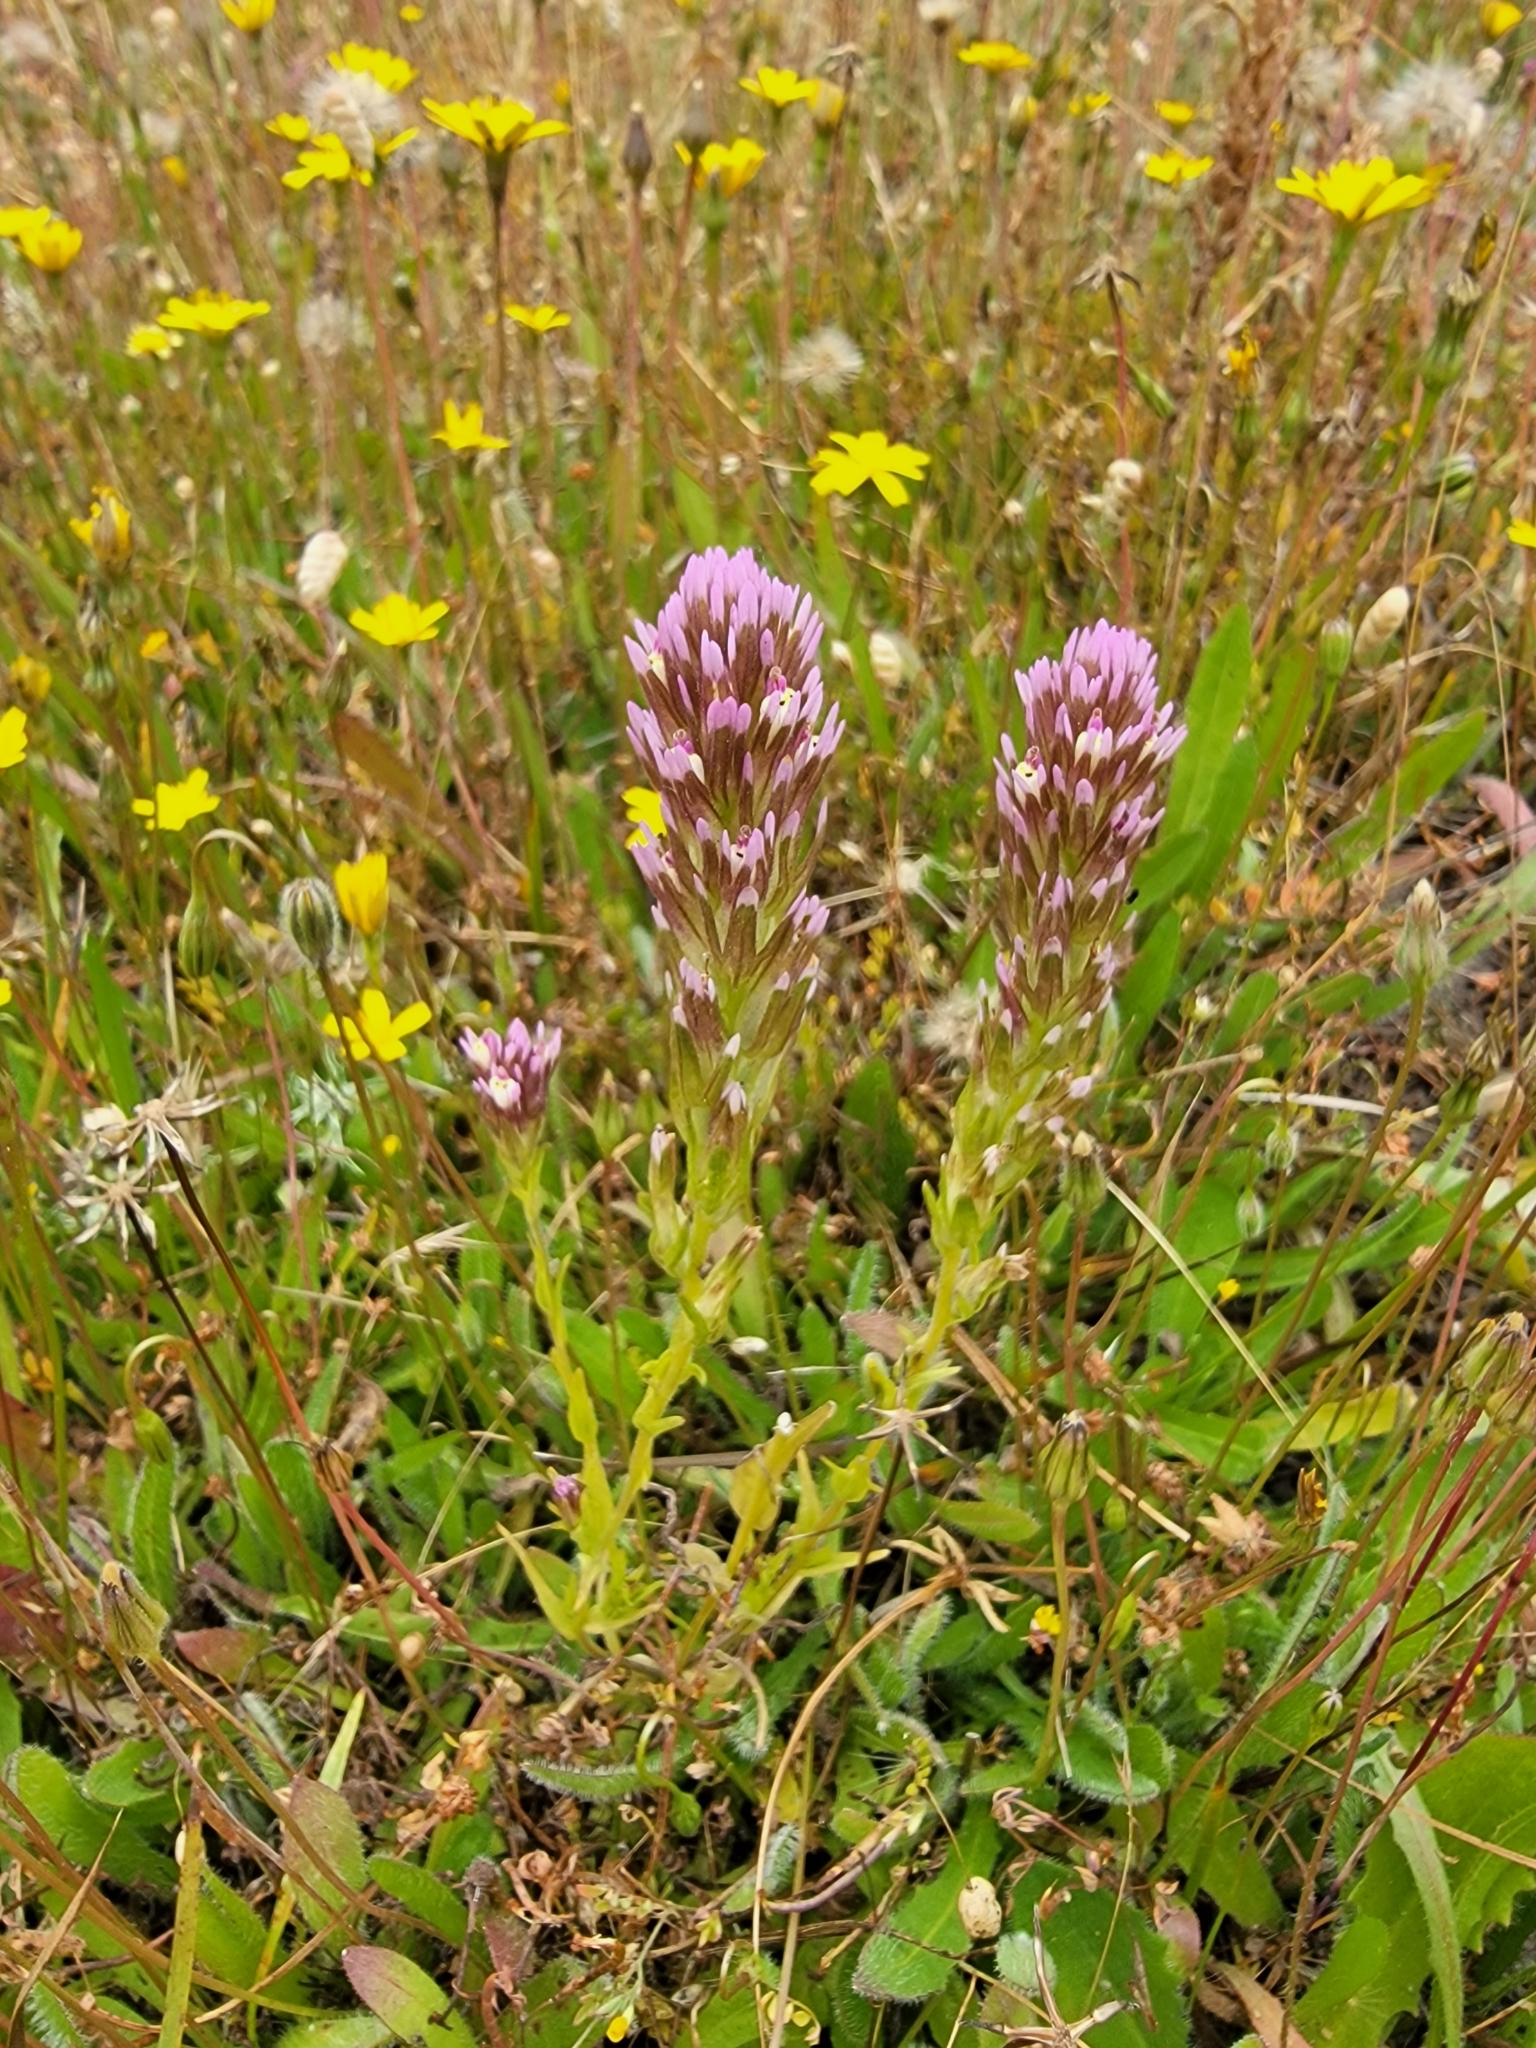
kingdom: Plantae
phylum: Tracheophyta
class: Magnoliopsida
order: Lamiales
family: Orobanchaceae
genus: Castilleja
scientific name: Castilleja densiflora
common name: Dense-flower indian paintbrush
